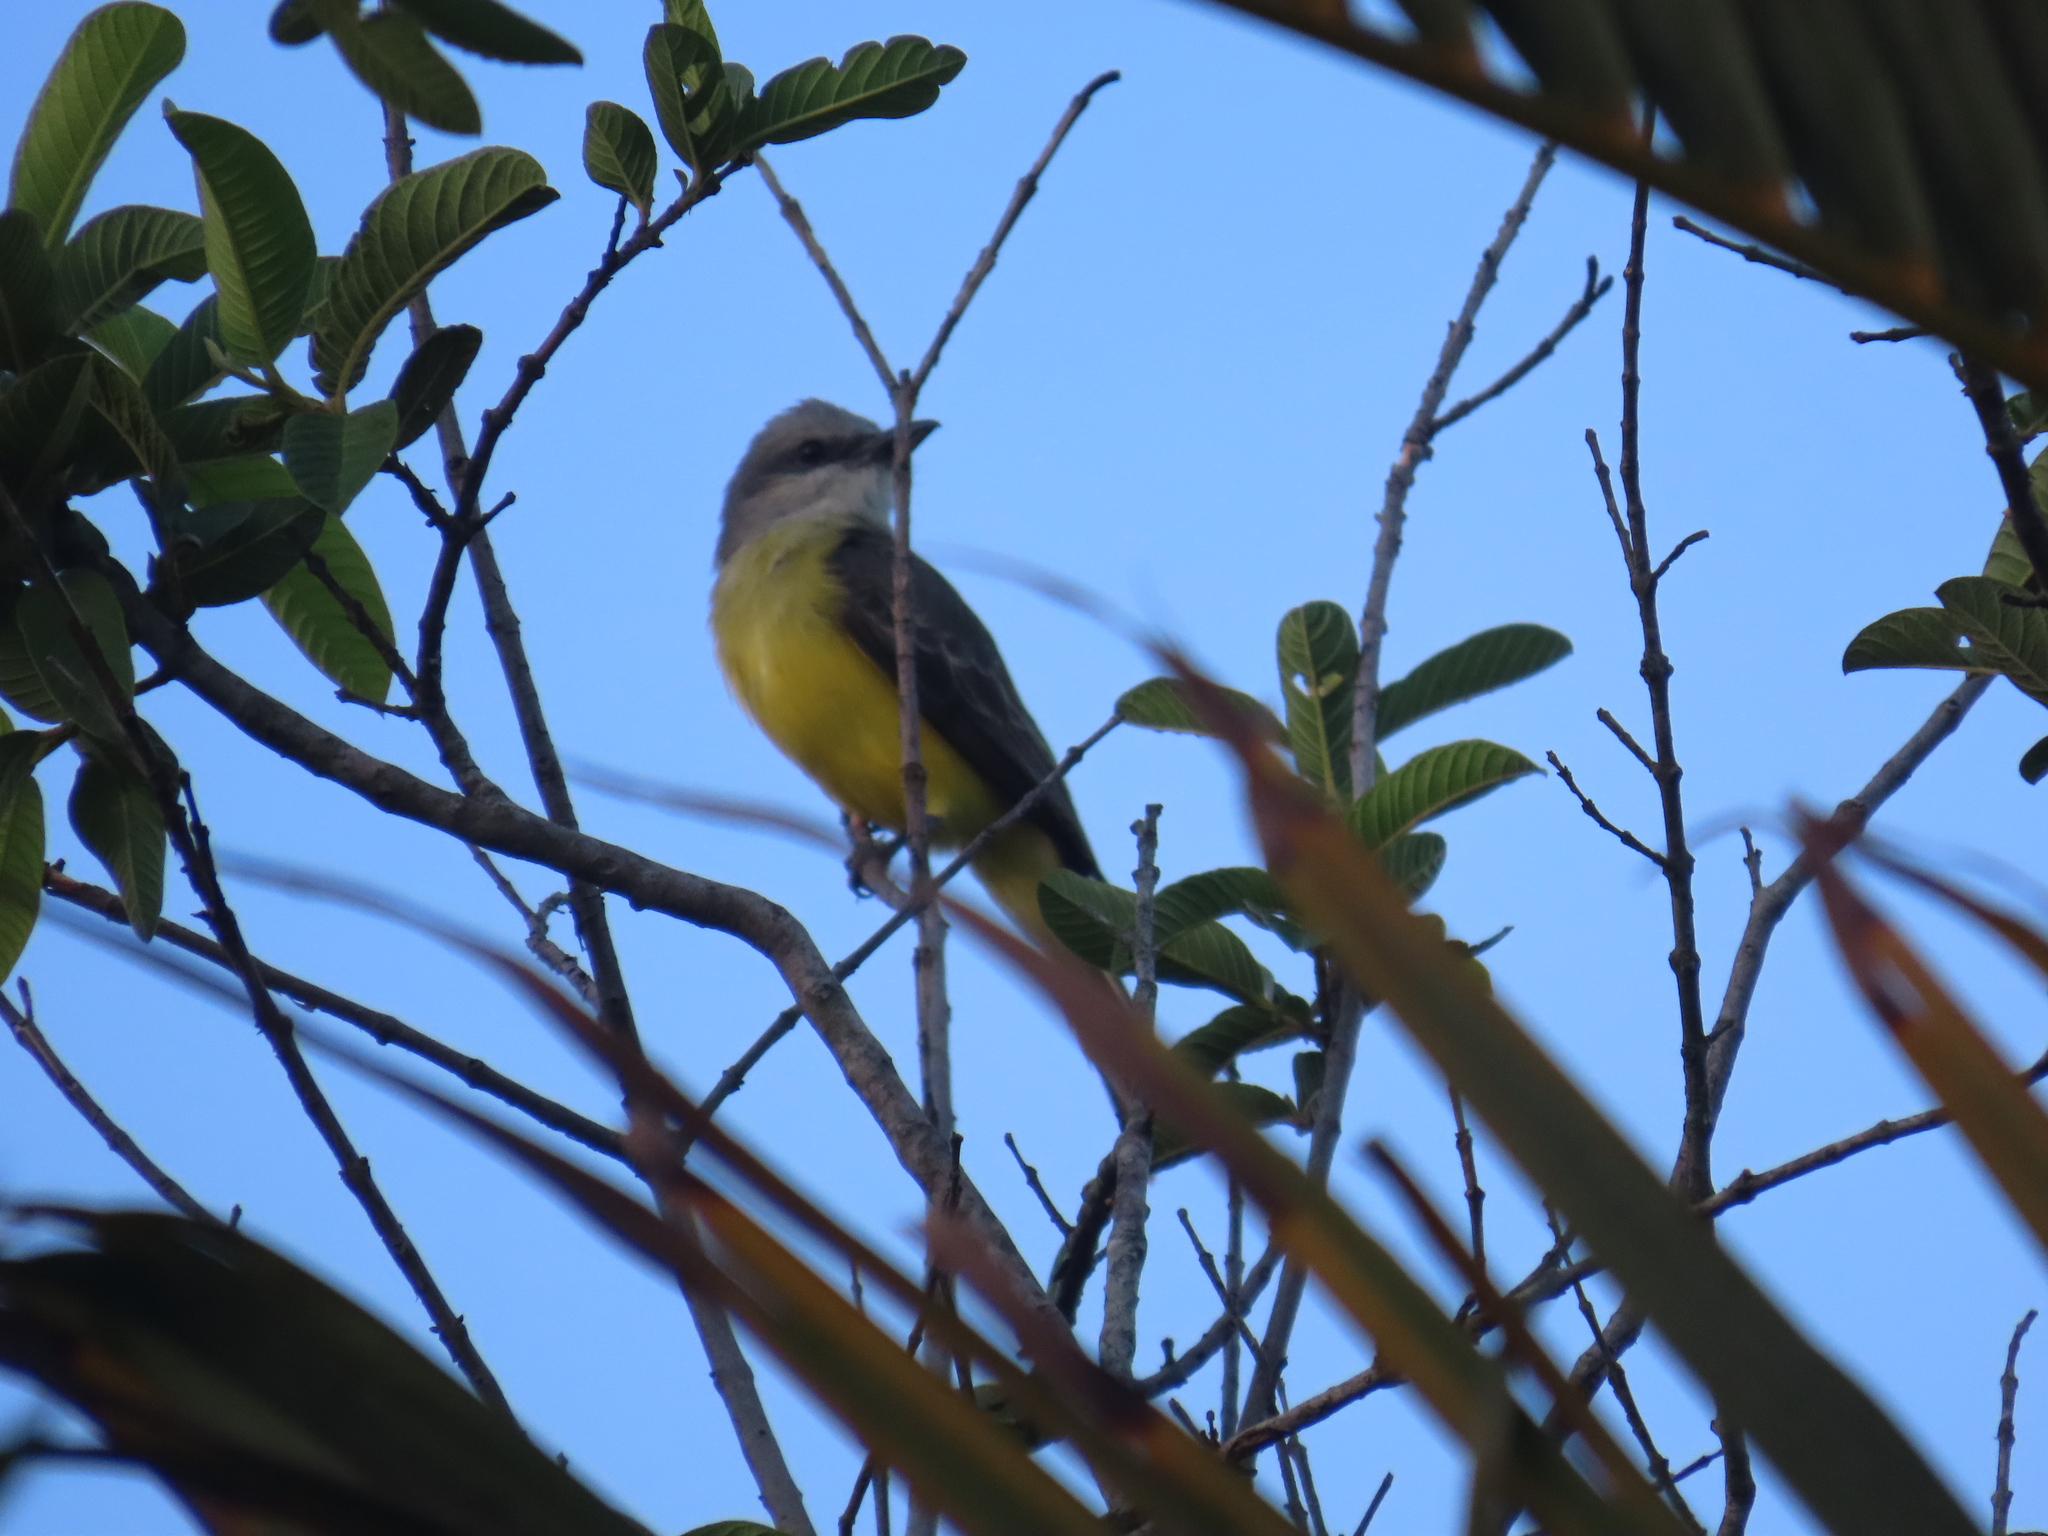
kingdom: Animalia
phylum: Chordata
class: Aves
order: Passeriformes
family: Tyrannidae
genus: Tyrannus
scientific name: Tyrannus melancholicus
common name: Tropical kingbird
